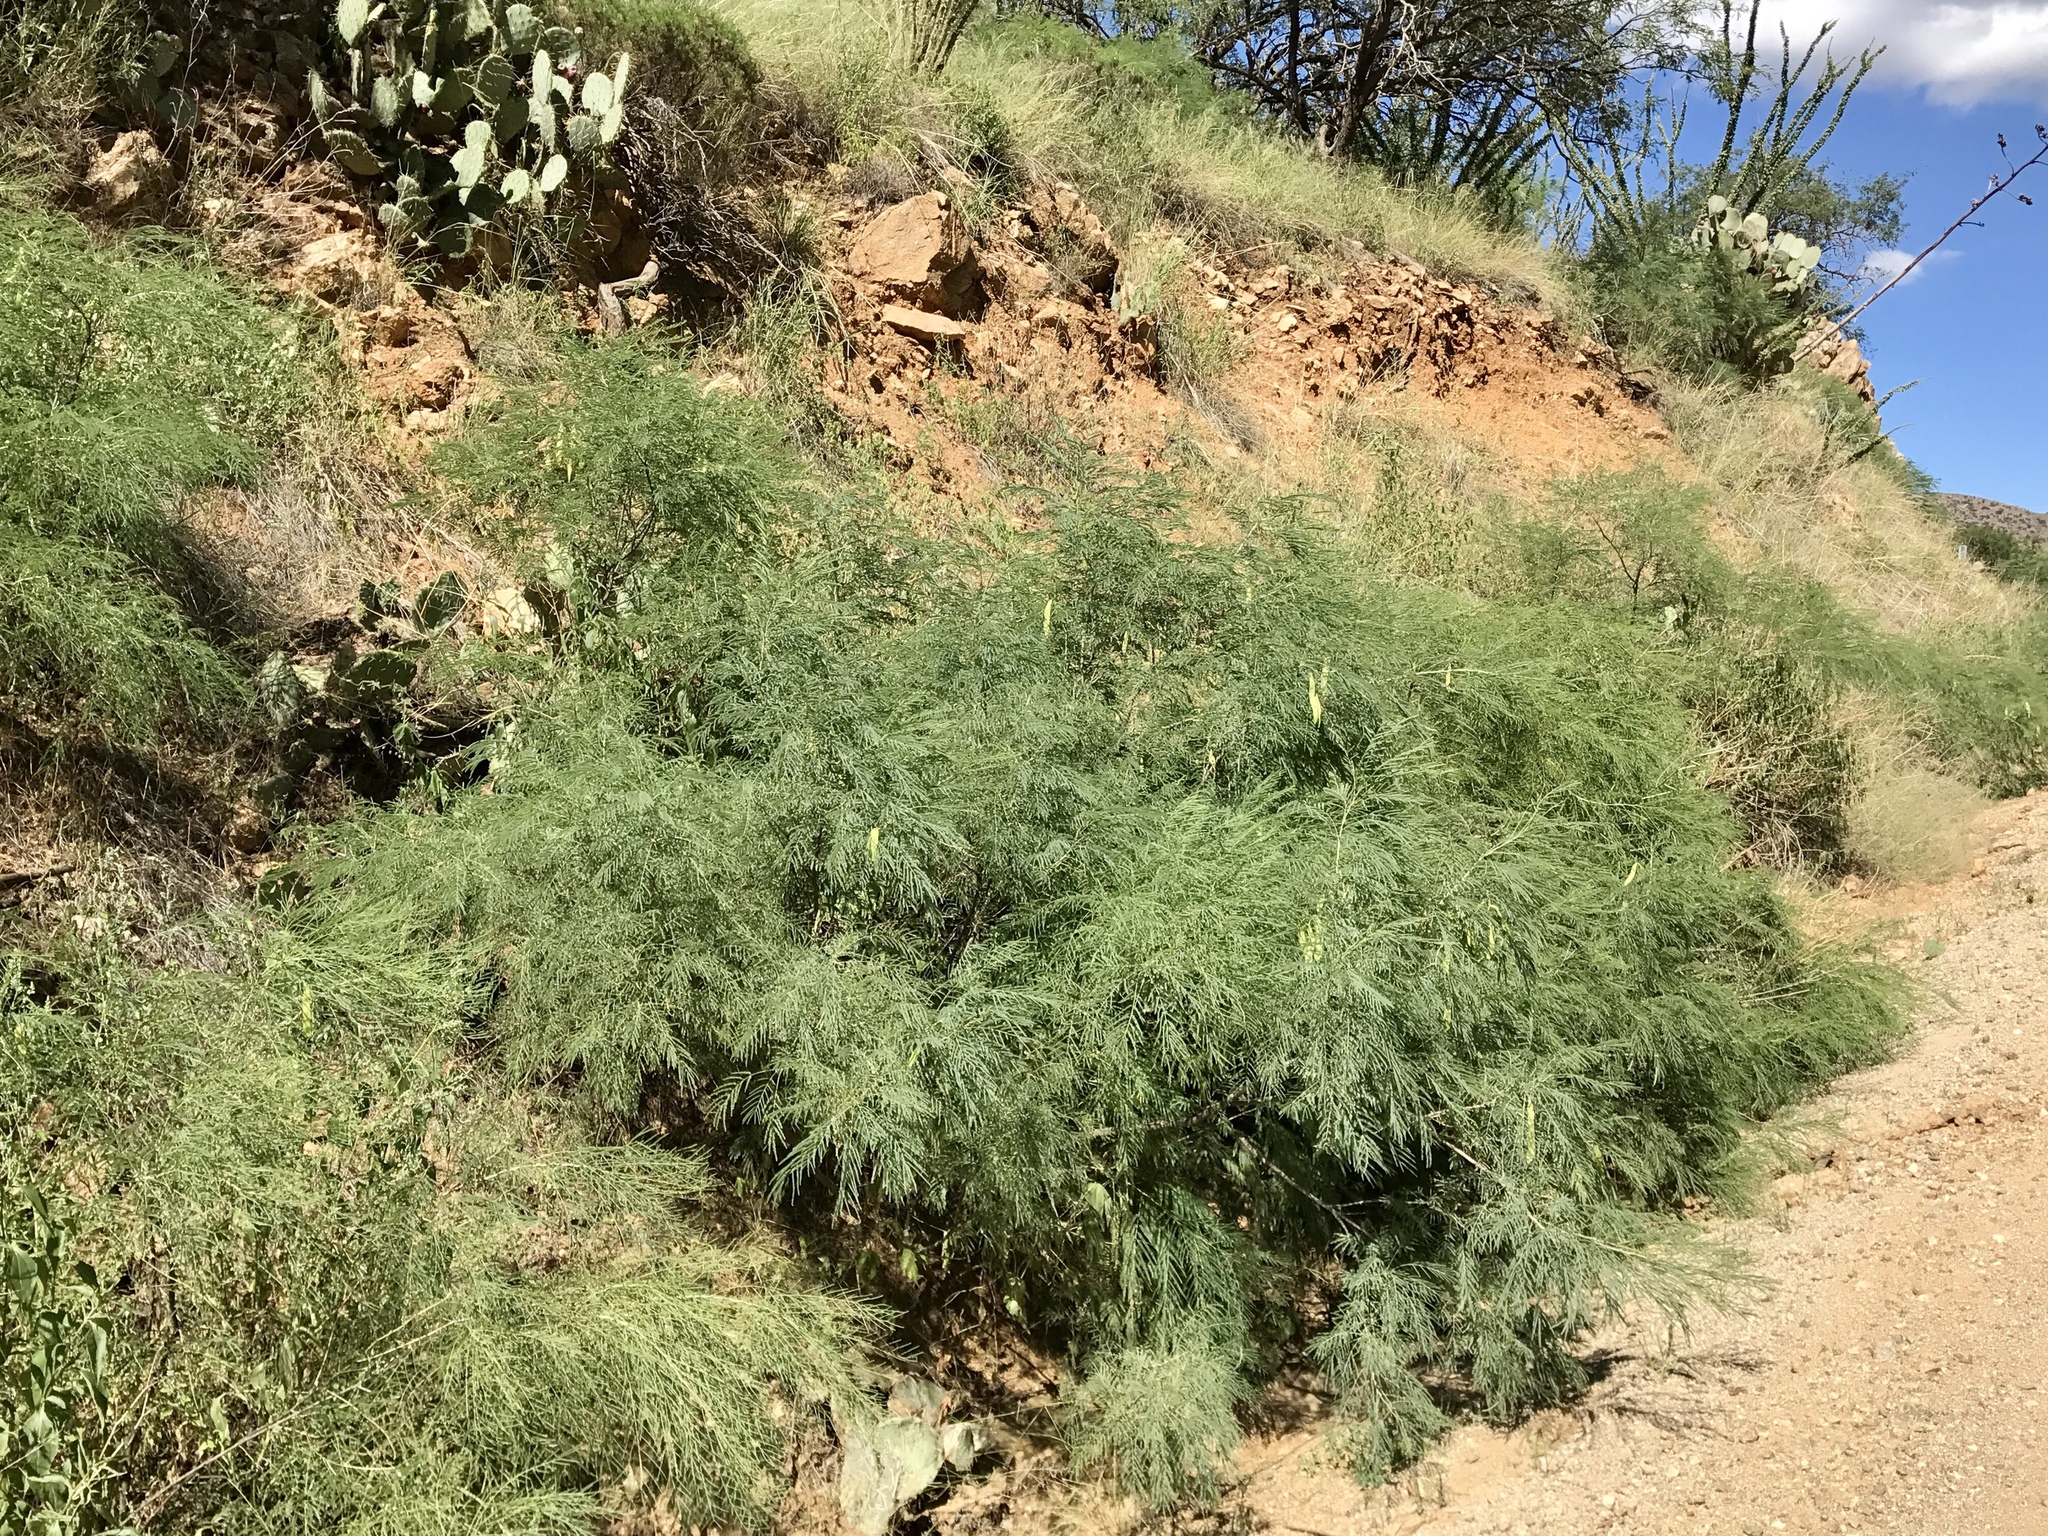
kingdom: Plantae
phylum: Tracheophyta
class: Magnoliopsida
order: Fabales
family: Fabaceae
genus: Mariosousa
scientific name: Mariosousa millefolia
